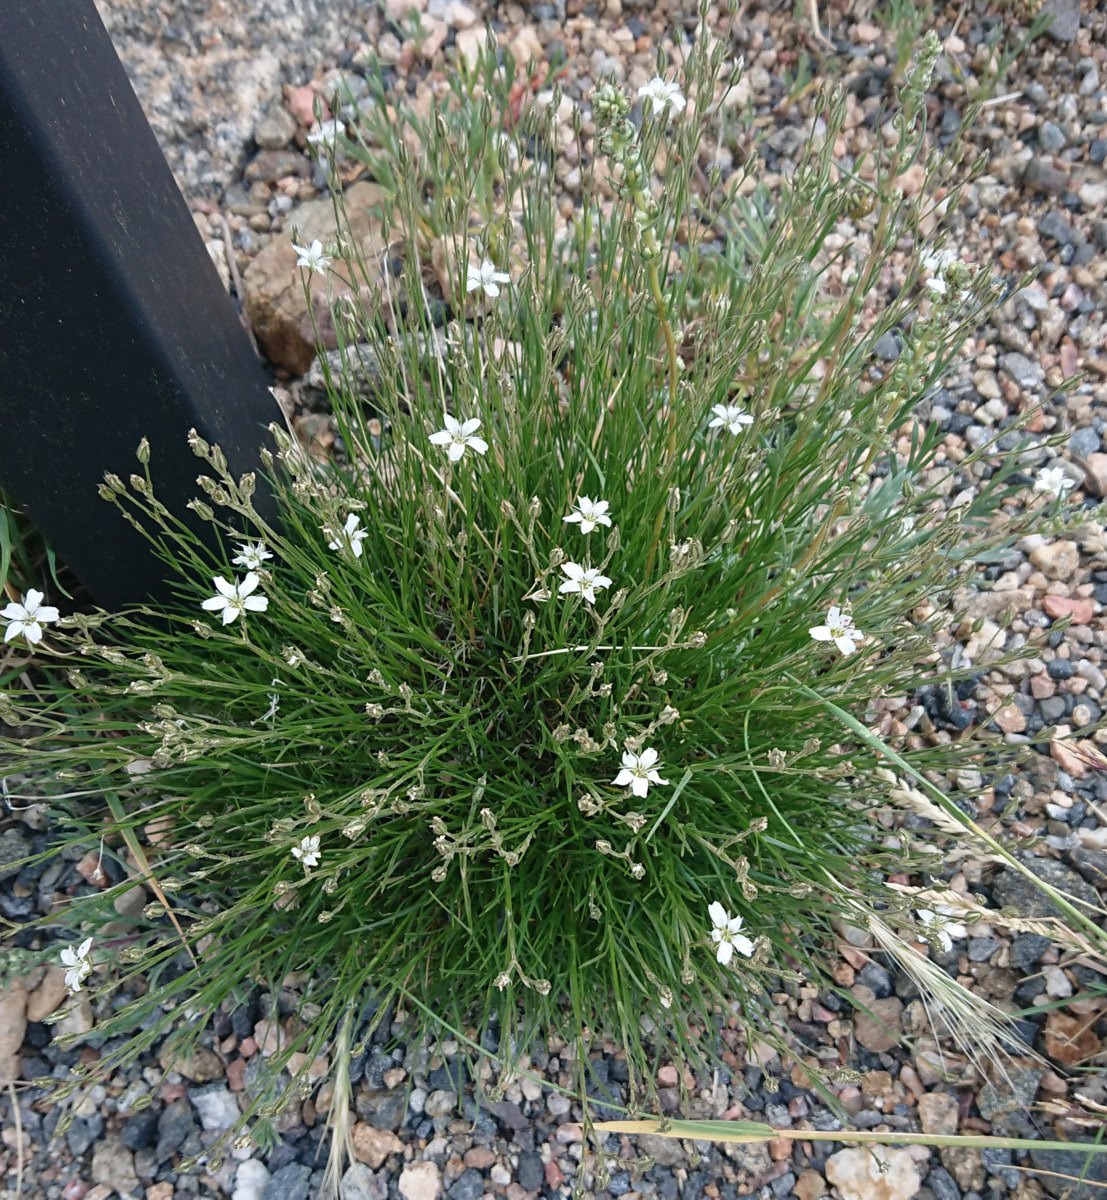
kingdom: Plantae
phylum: Tracheophyta
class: Magnoliopsida
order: Caryophyllales
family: Caryophyllaceae
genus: Eremogone
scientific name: Eremogone fendleri
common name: Fendler's sandwort
